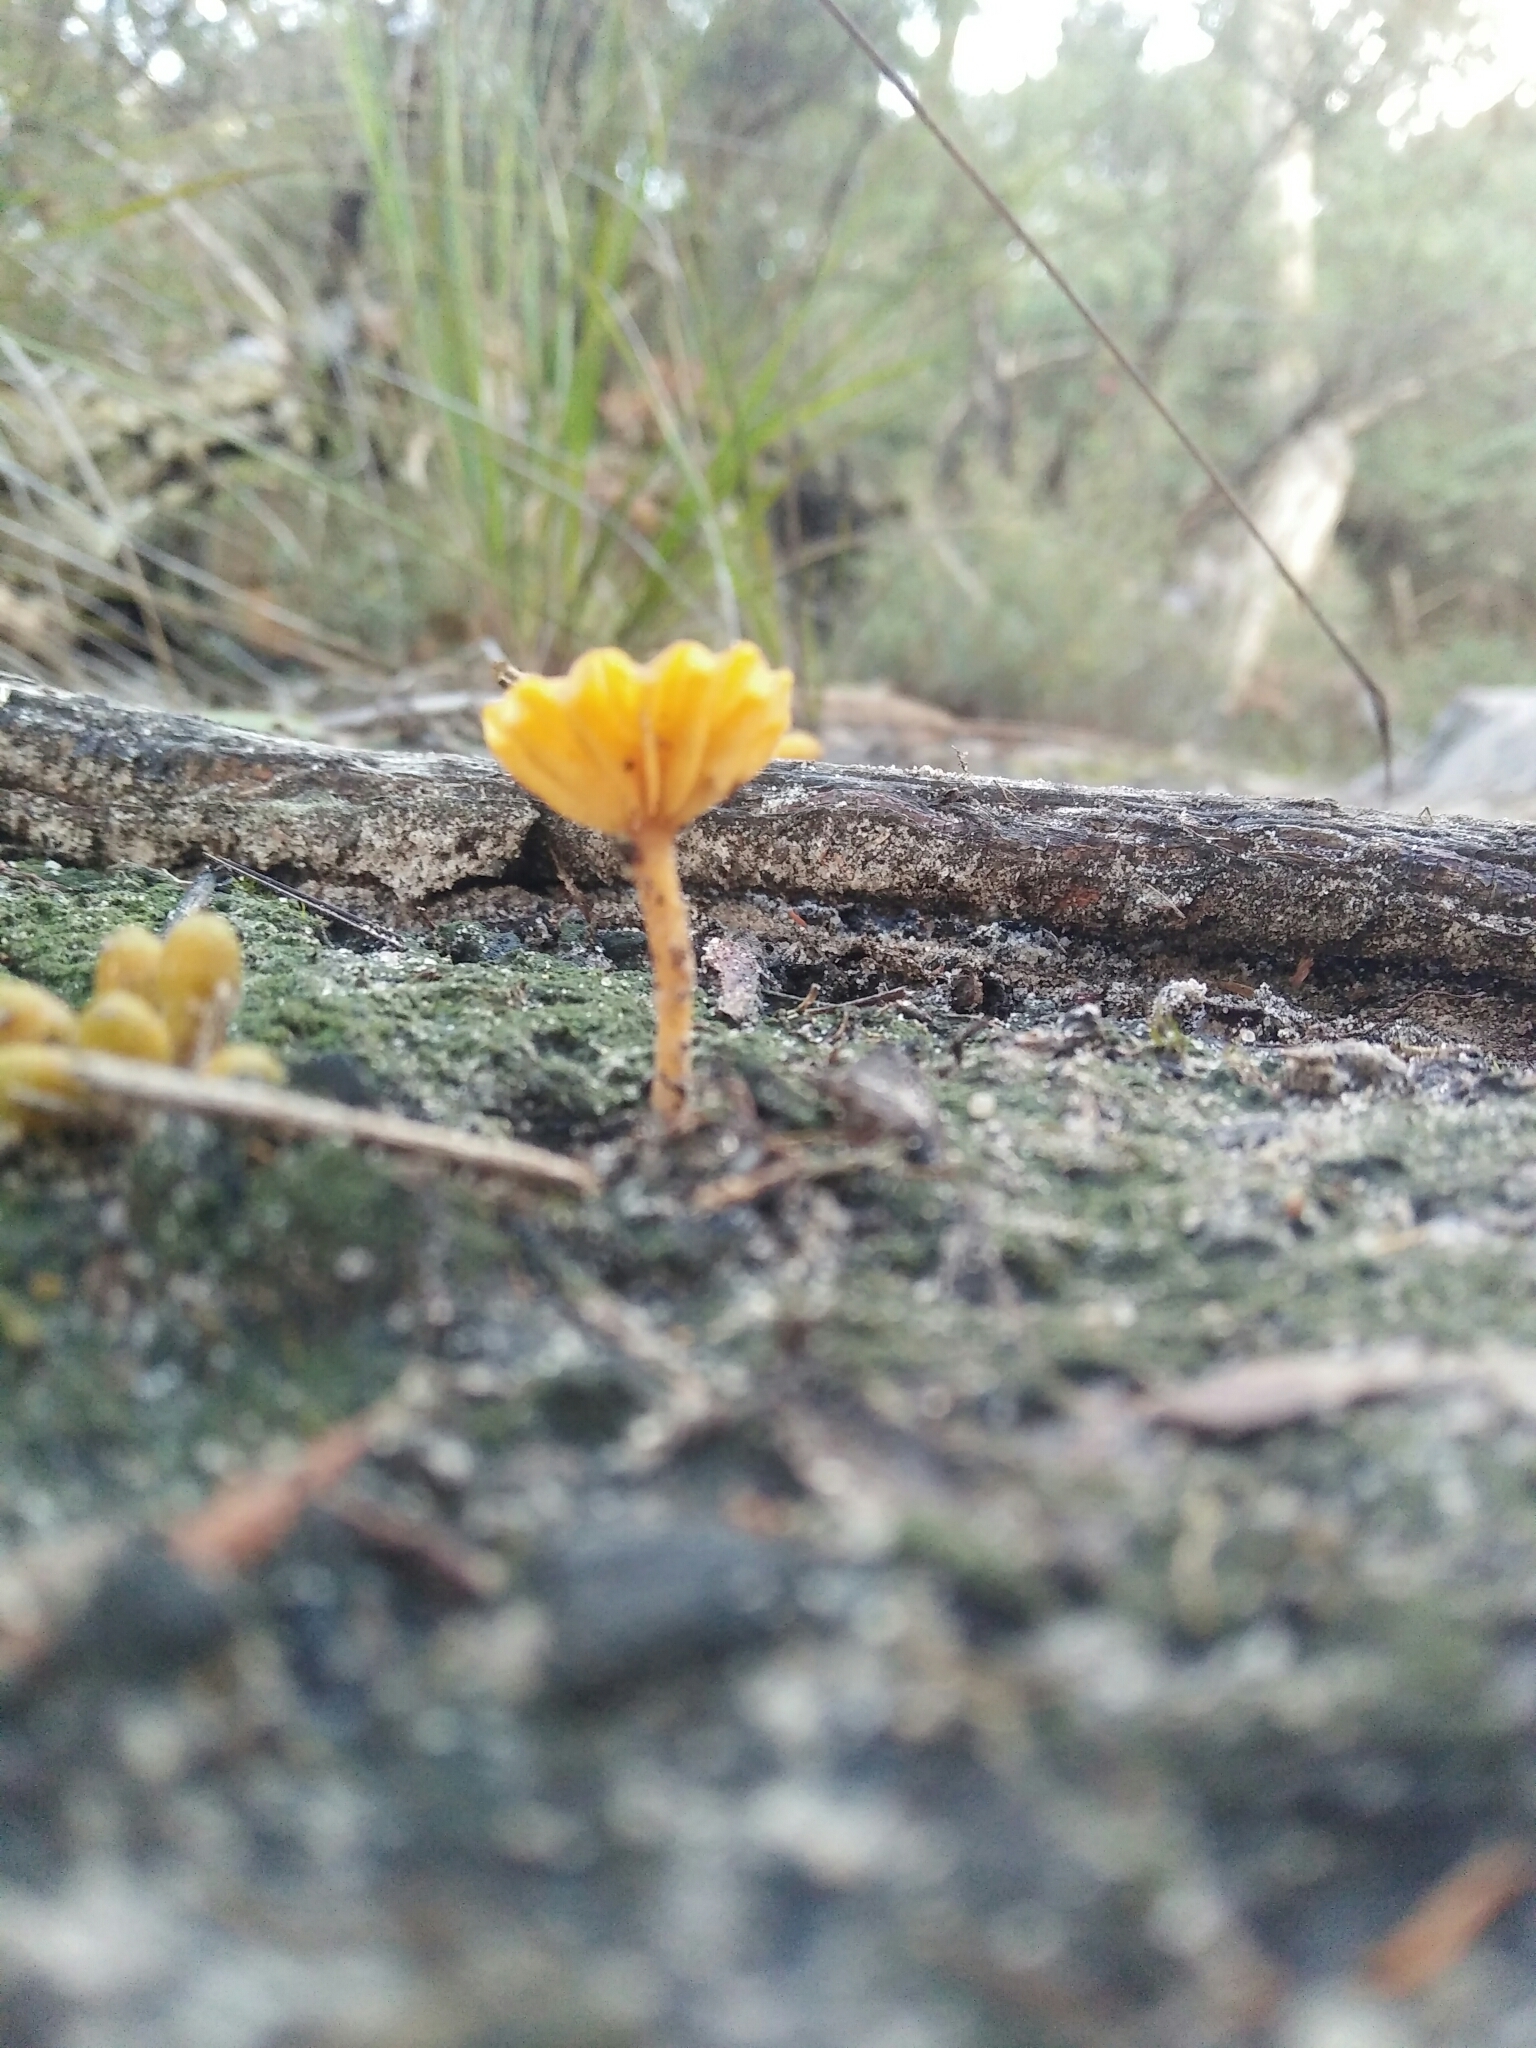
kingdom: Fungi
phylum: Basidiomycota
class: Agaricomycetes
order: Agaricales
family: Hygrophoraceae
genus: Lichenomphalia
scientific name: Lichenomphalia chromacea
